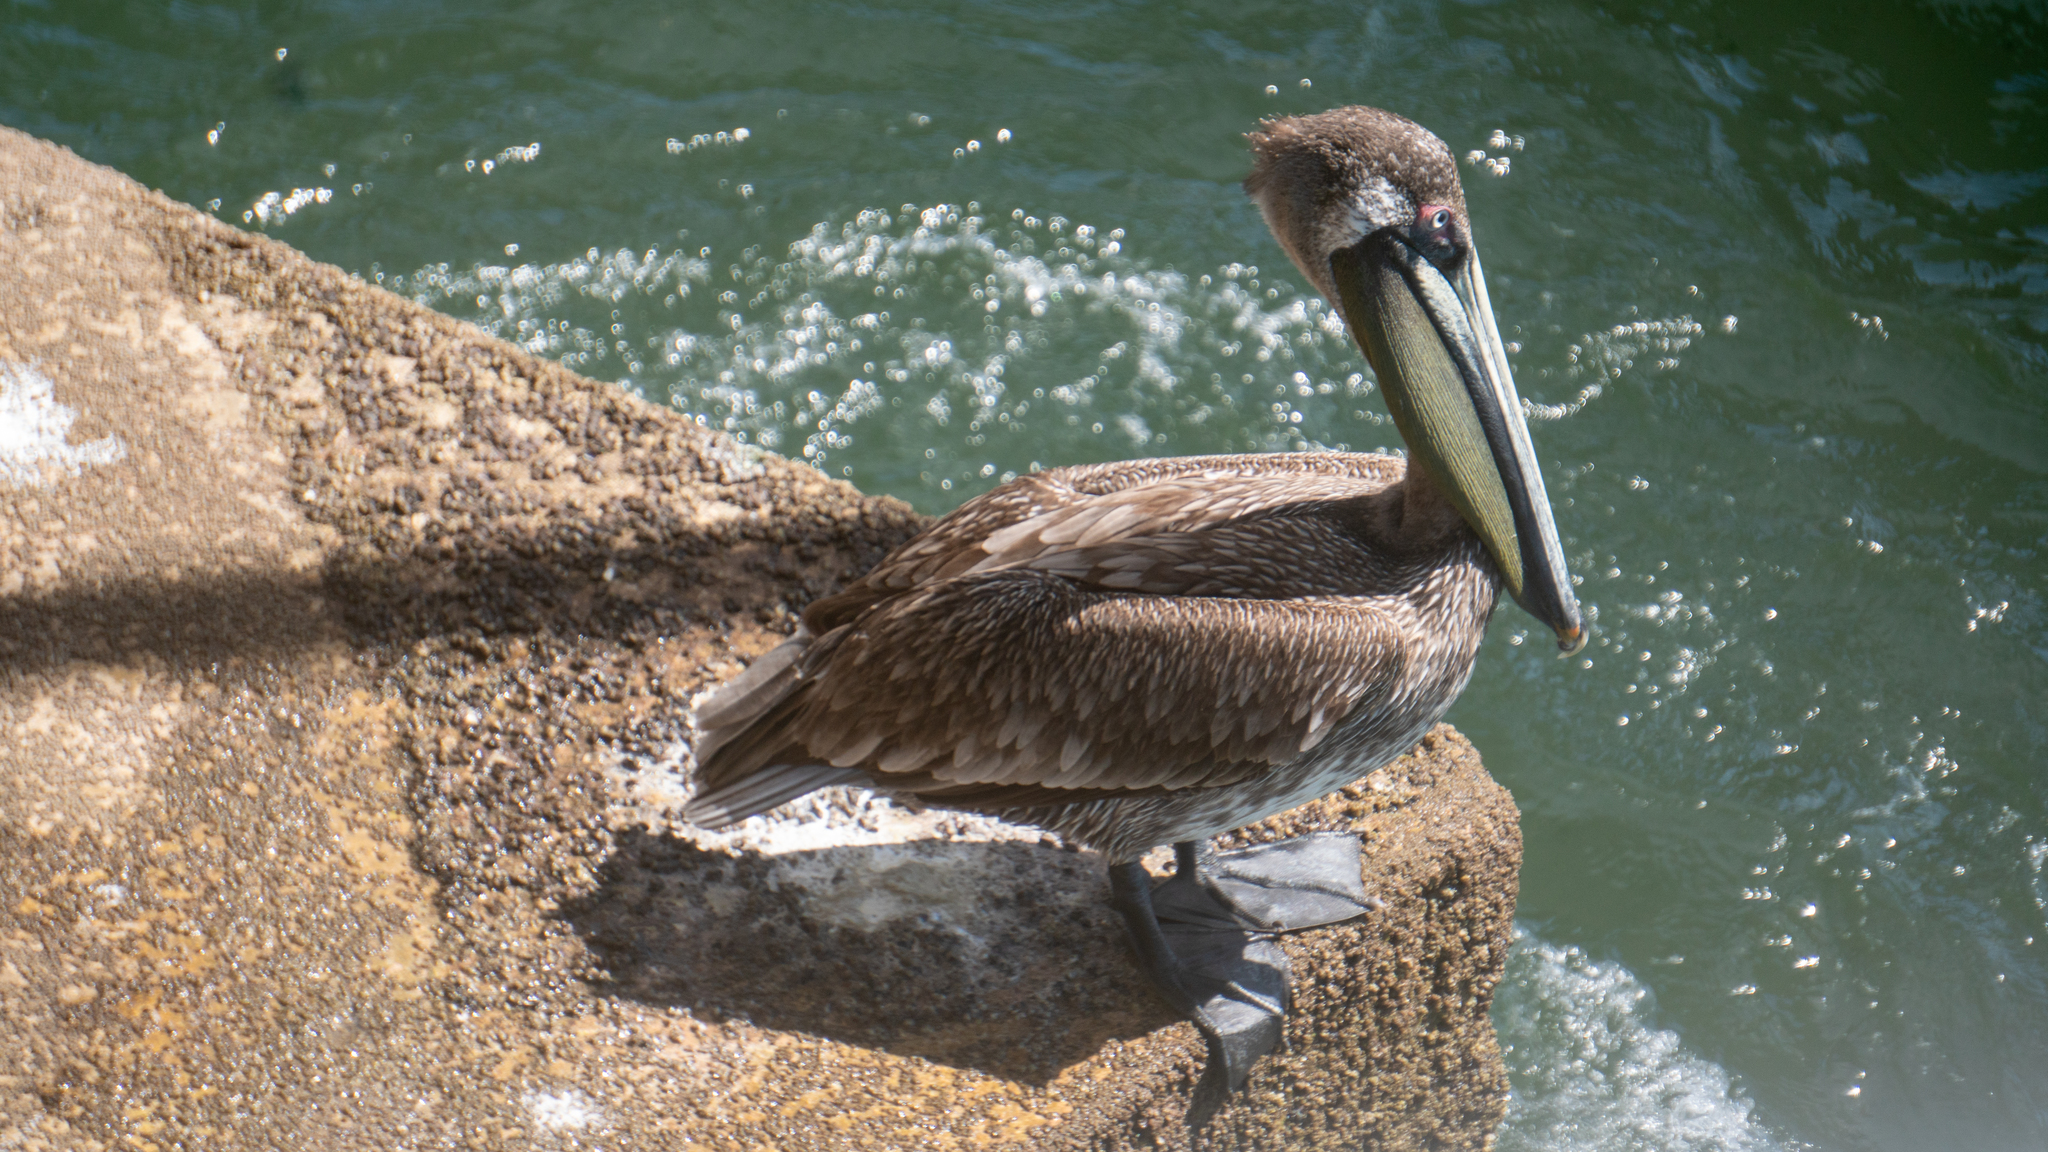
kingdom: Animalia
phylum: Chordata
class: Aves
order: Pelecaniformes
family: Pelecanidae
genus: Pelecanus
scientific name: Pelecanus occidentalis
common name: Brown pelican
